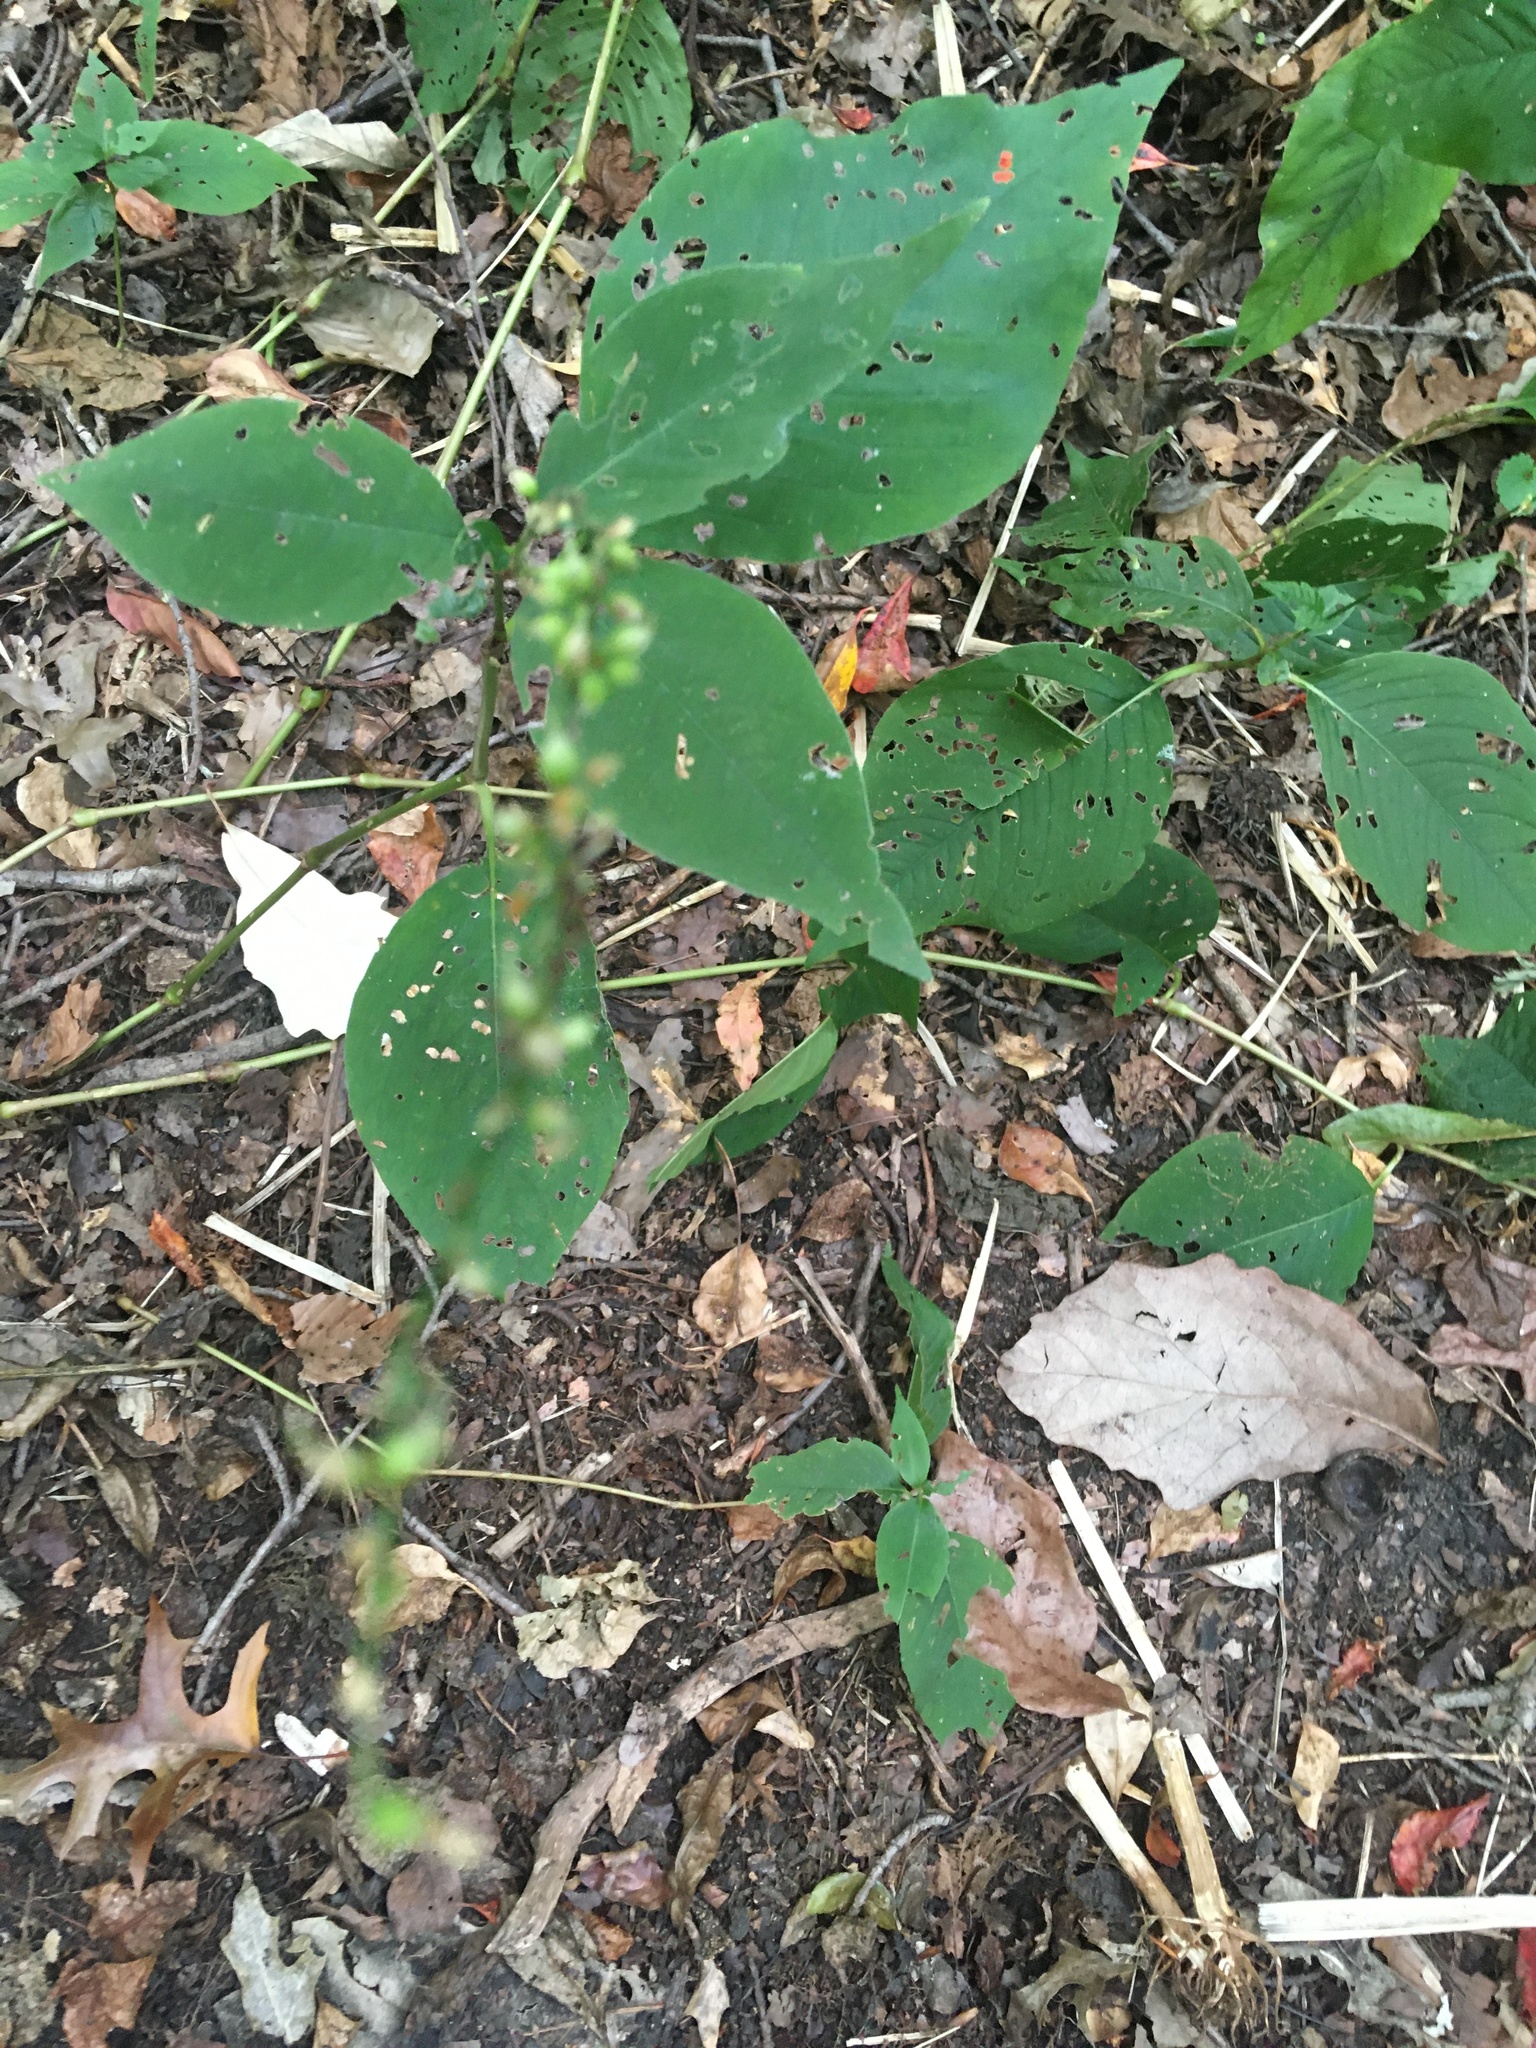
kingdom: Plantae
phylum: Tracheophyta
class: Magnoliopsida
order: Caryophyllales
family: Polygonaceae
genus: Persicaria
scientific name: Persicaria virginiana
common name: Jumpseed
